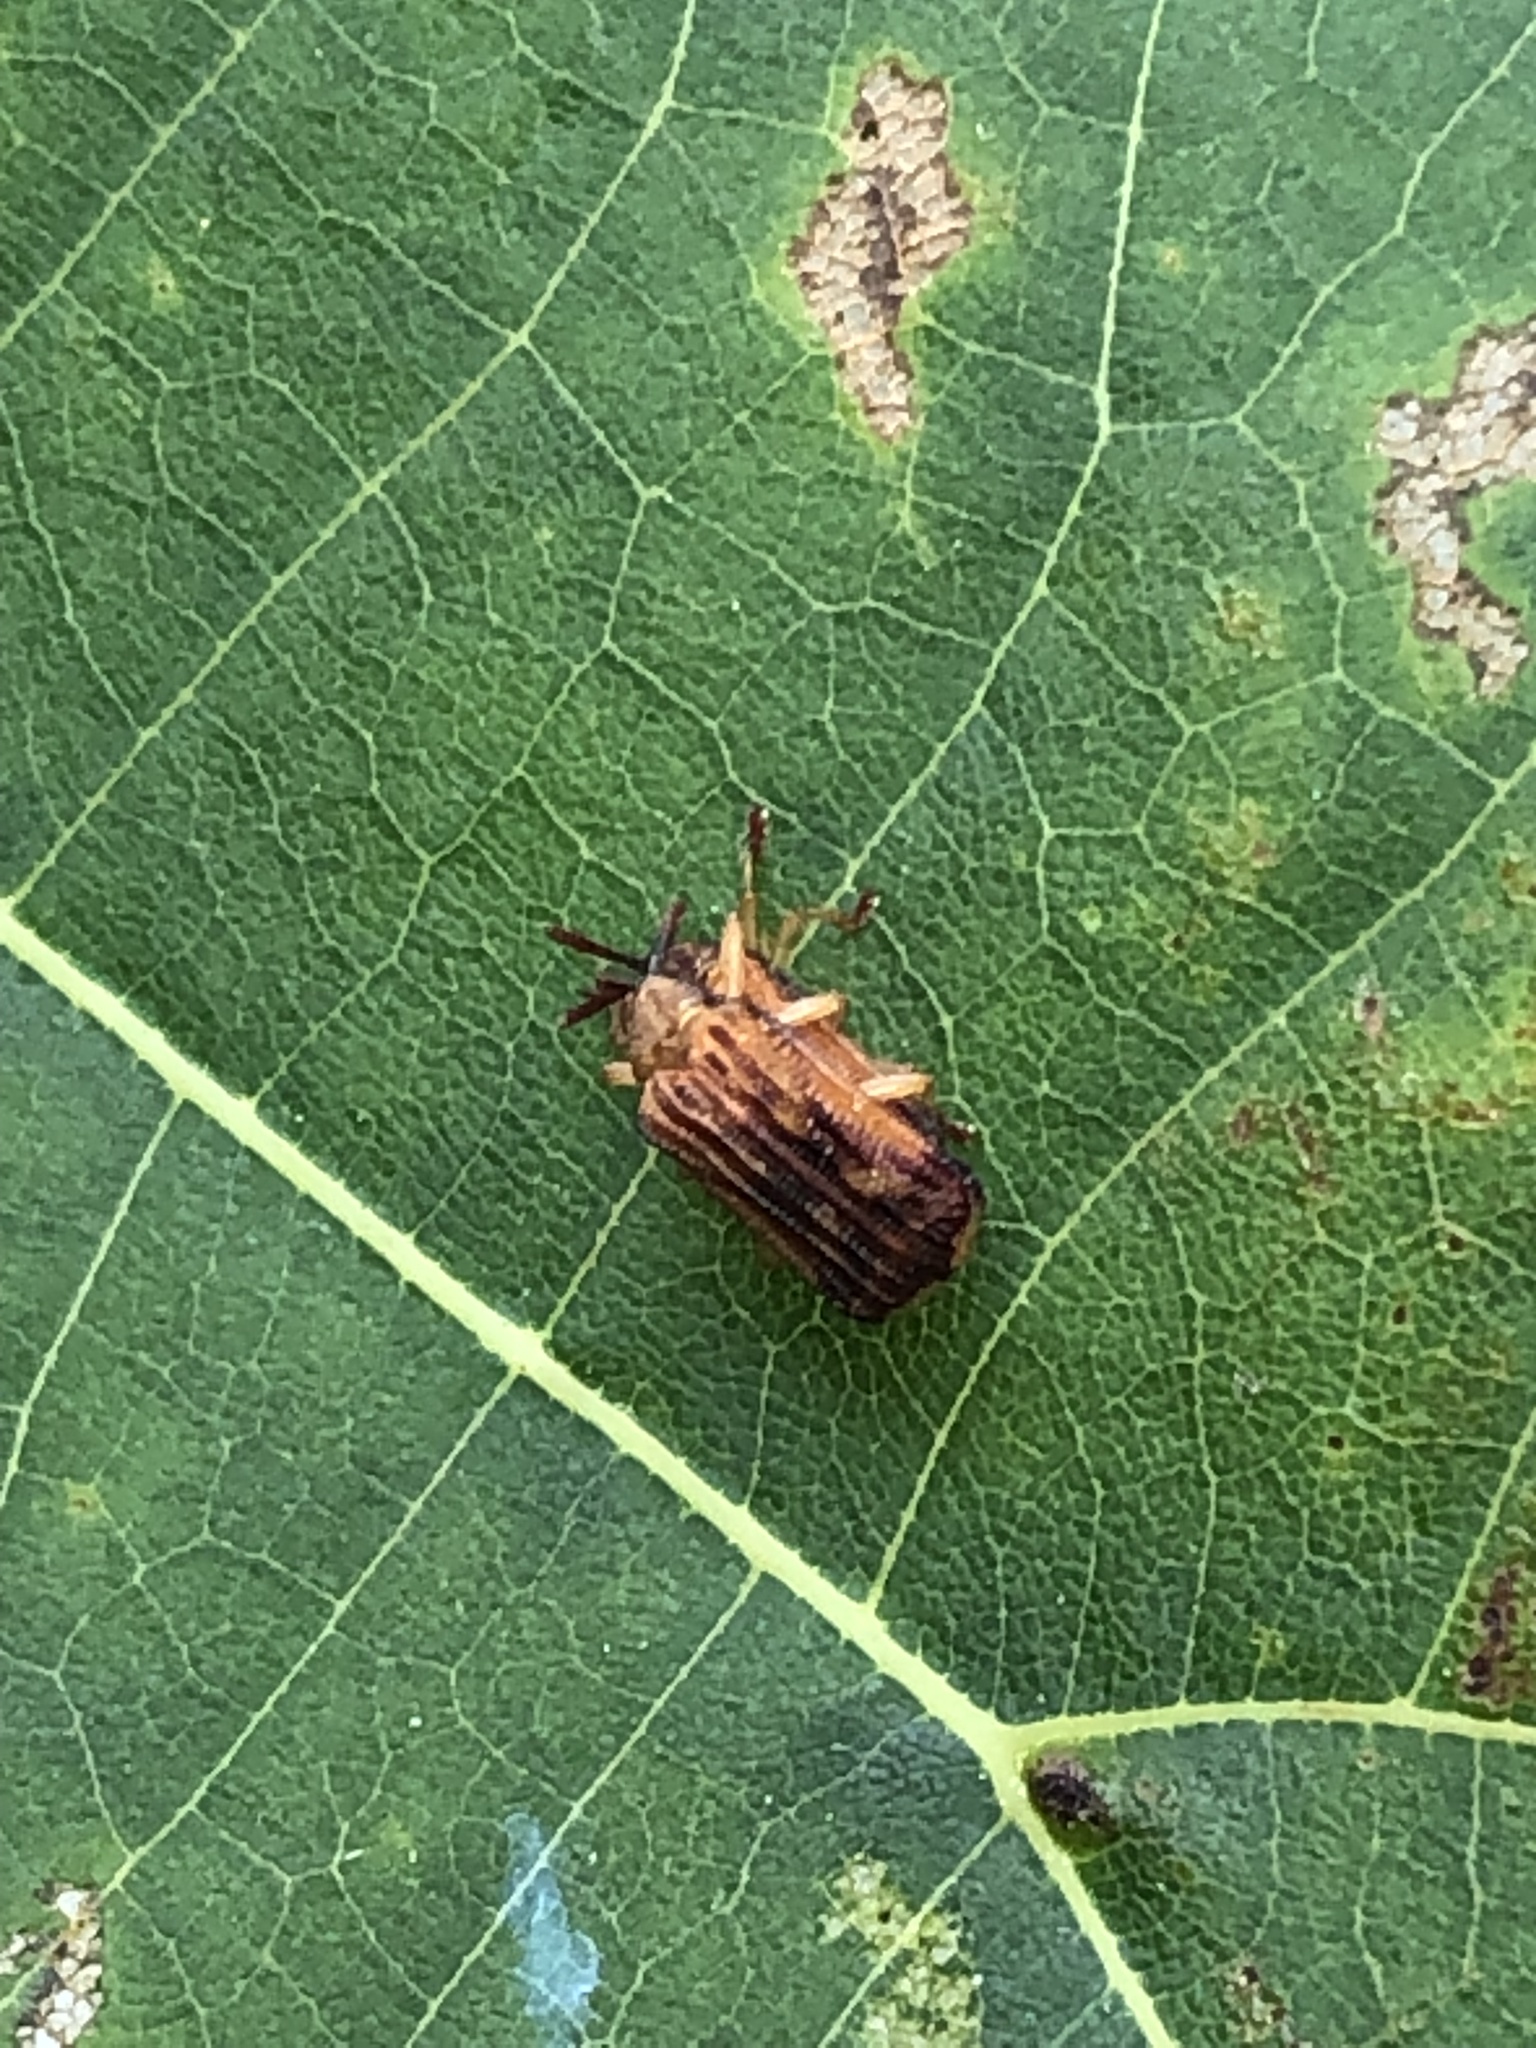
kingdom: Animalia
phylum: Arthropoda
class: Insecta
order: Coleoptera
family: Chrysomelidae
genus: Baliosus
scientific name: Baliosus nervosus
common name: Basswood leaf miner
